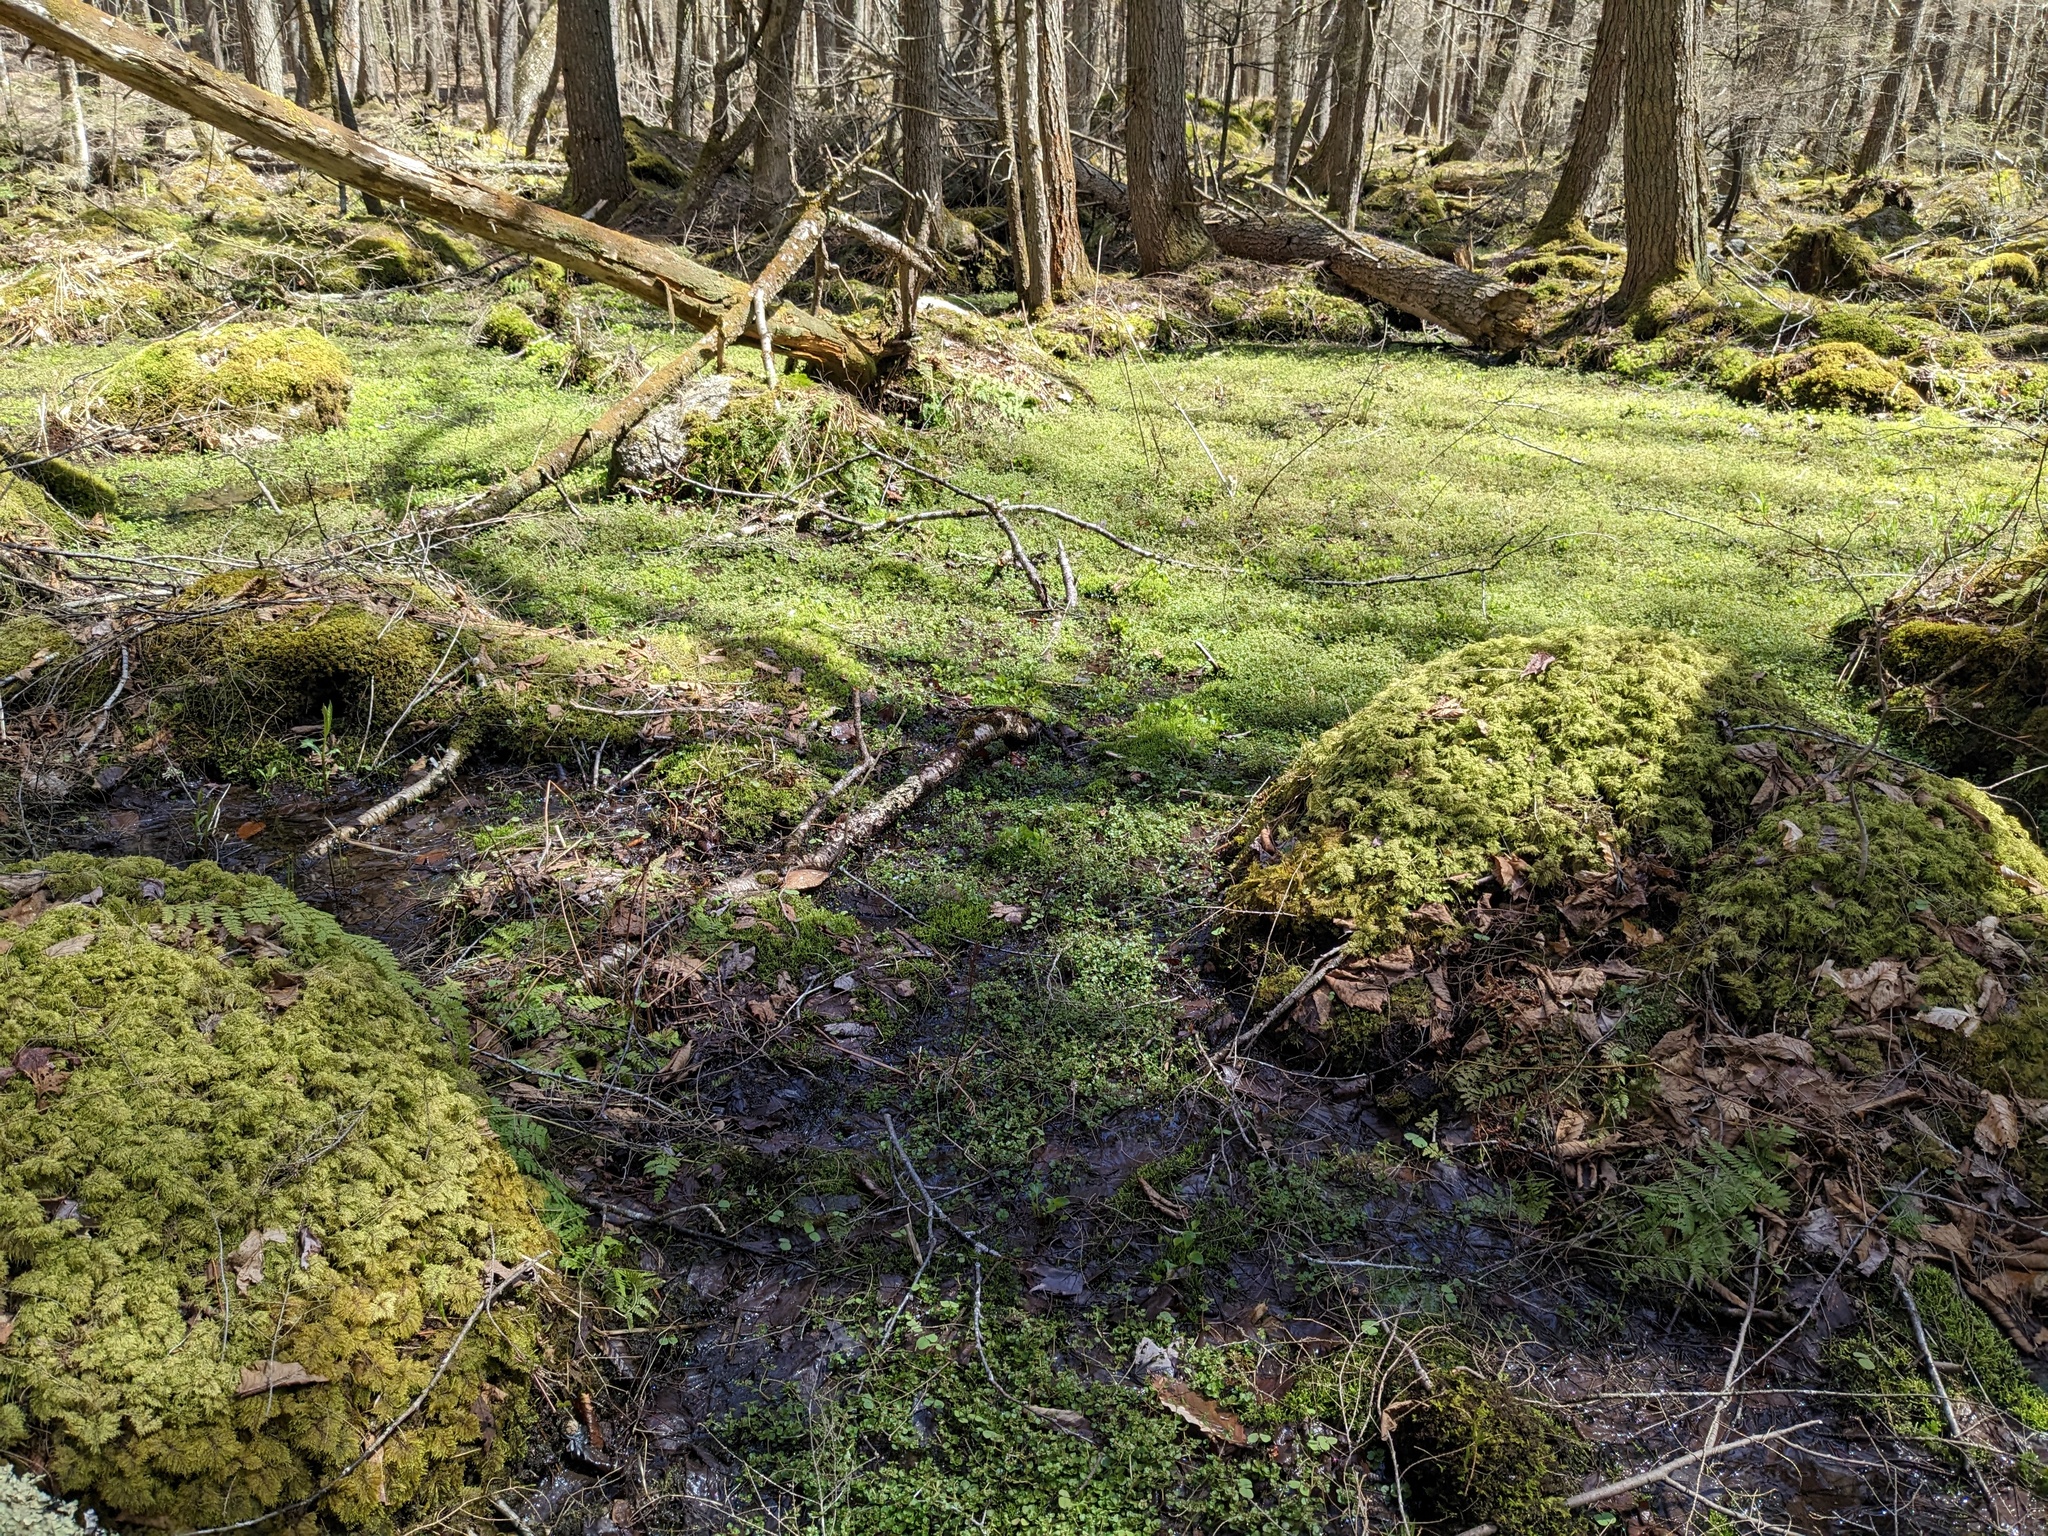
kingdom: Plantae
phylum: Tracheophyta
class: Magnoliopsida
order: Saxifragales
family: Saxifragaceae
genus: Chrysosplenium
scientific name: Chrysosplenium americanum
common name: American golden-saxifrage
